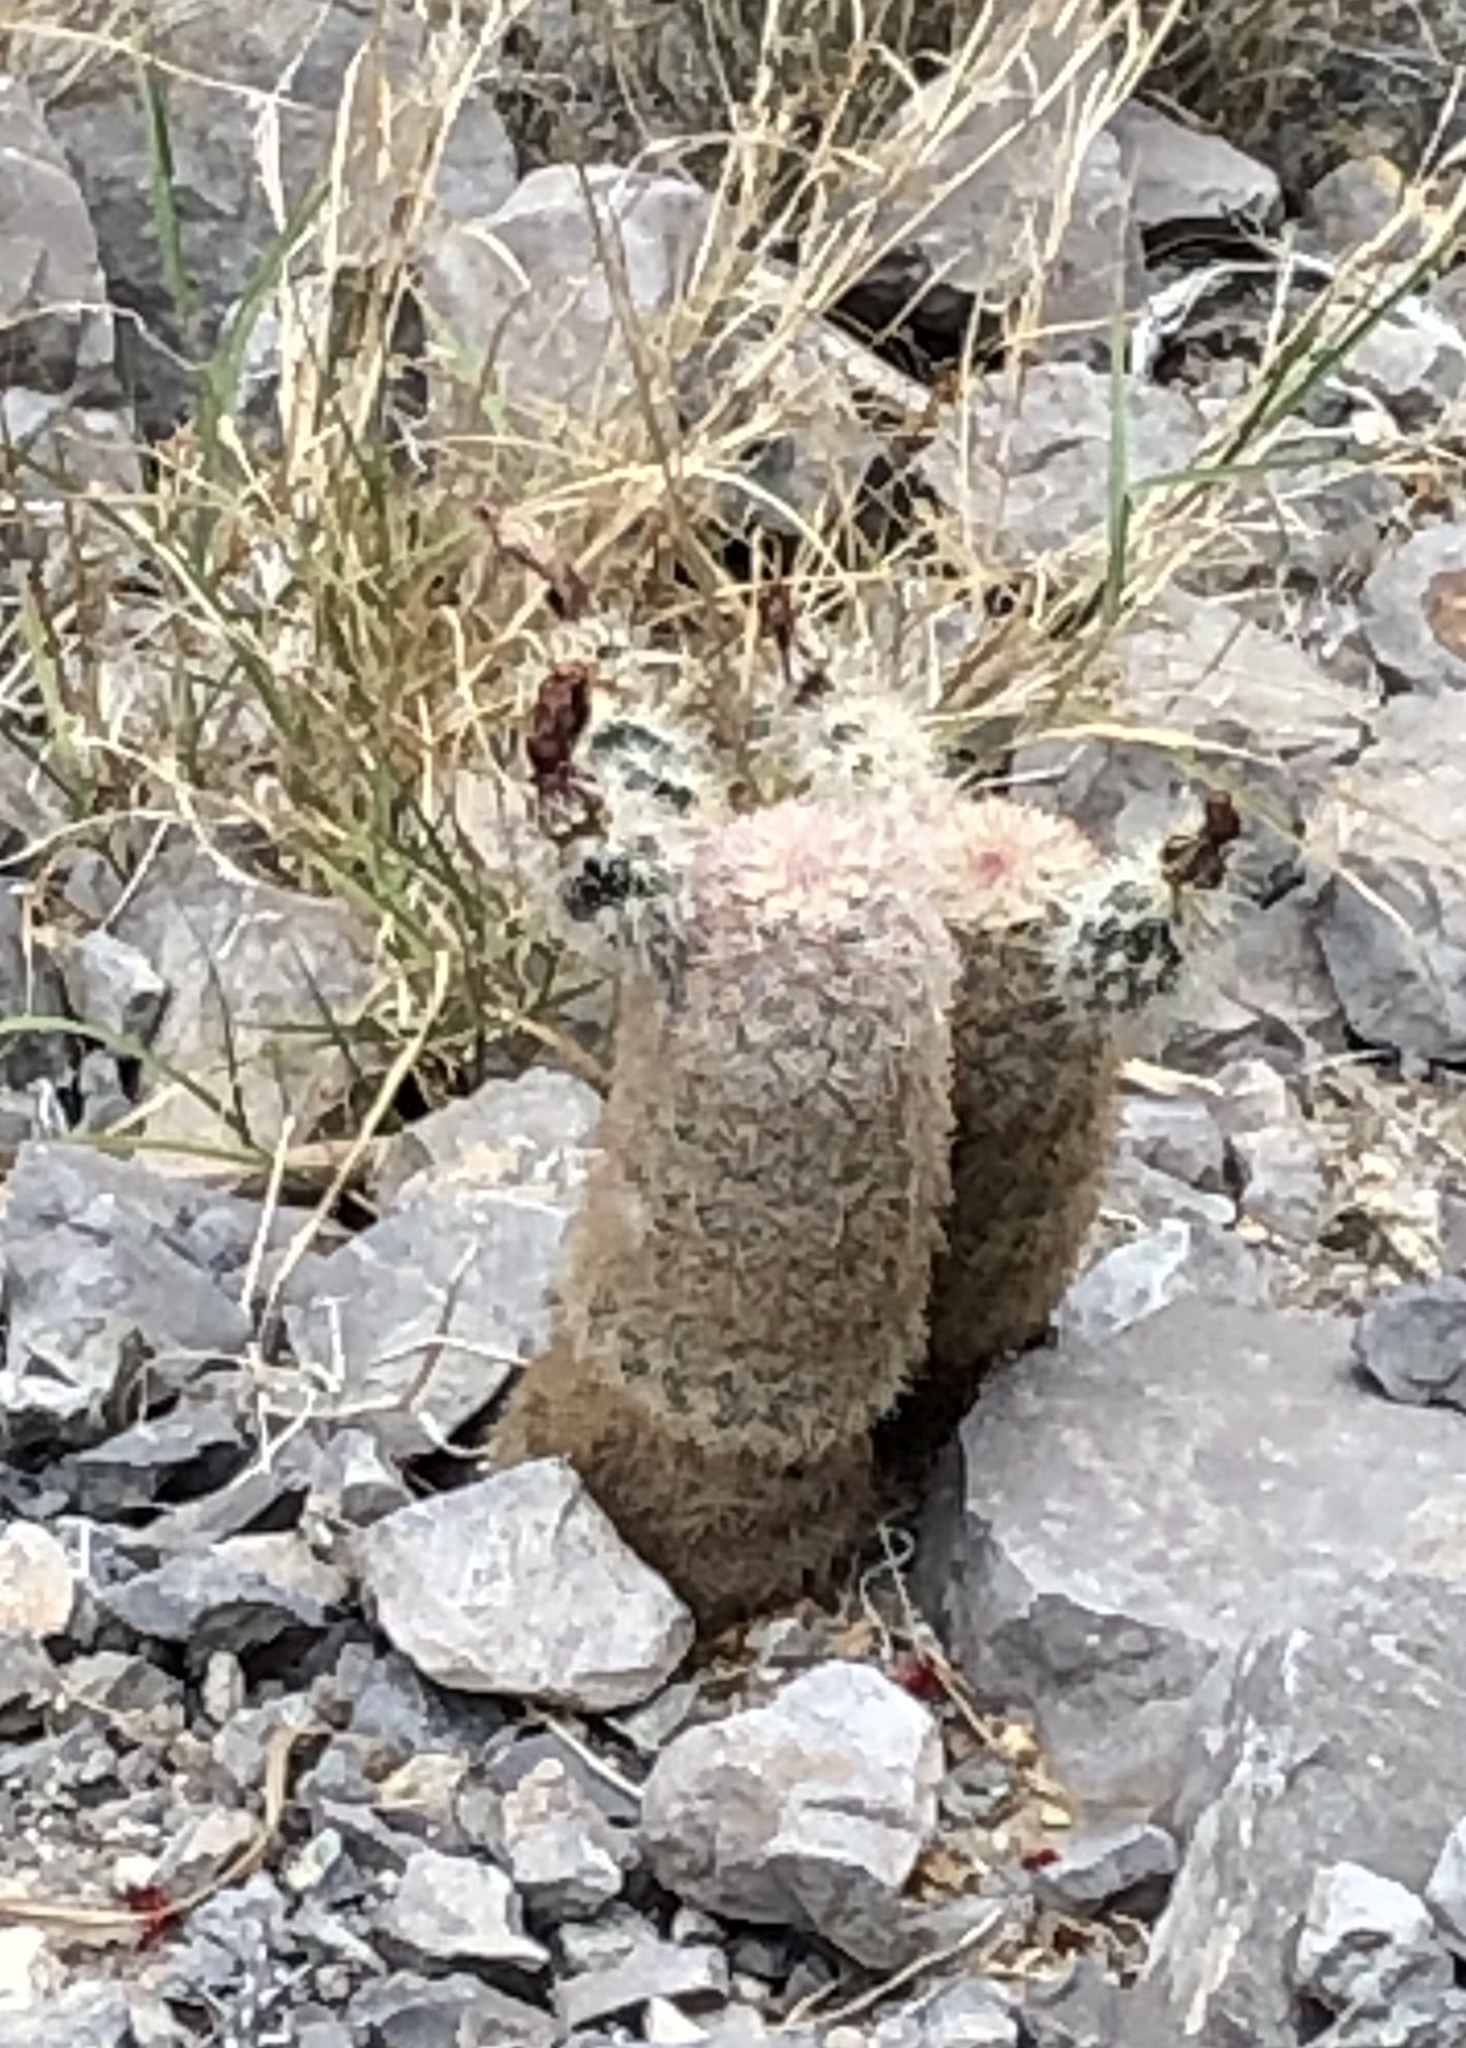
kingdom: Plantae
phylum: Tracheophyta
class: Magnoliopsida
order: Caryophyllales
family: Cactaceae
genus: Echinocereus
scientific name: Echinocereus dasyacanthus
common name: Spiny hedgehog cactus
